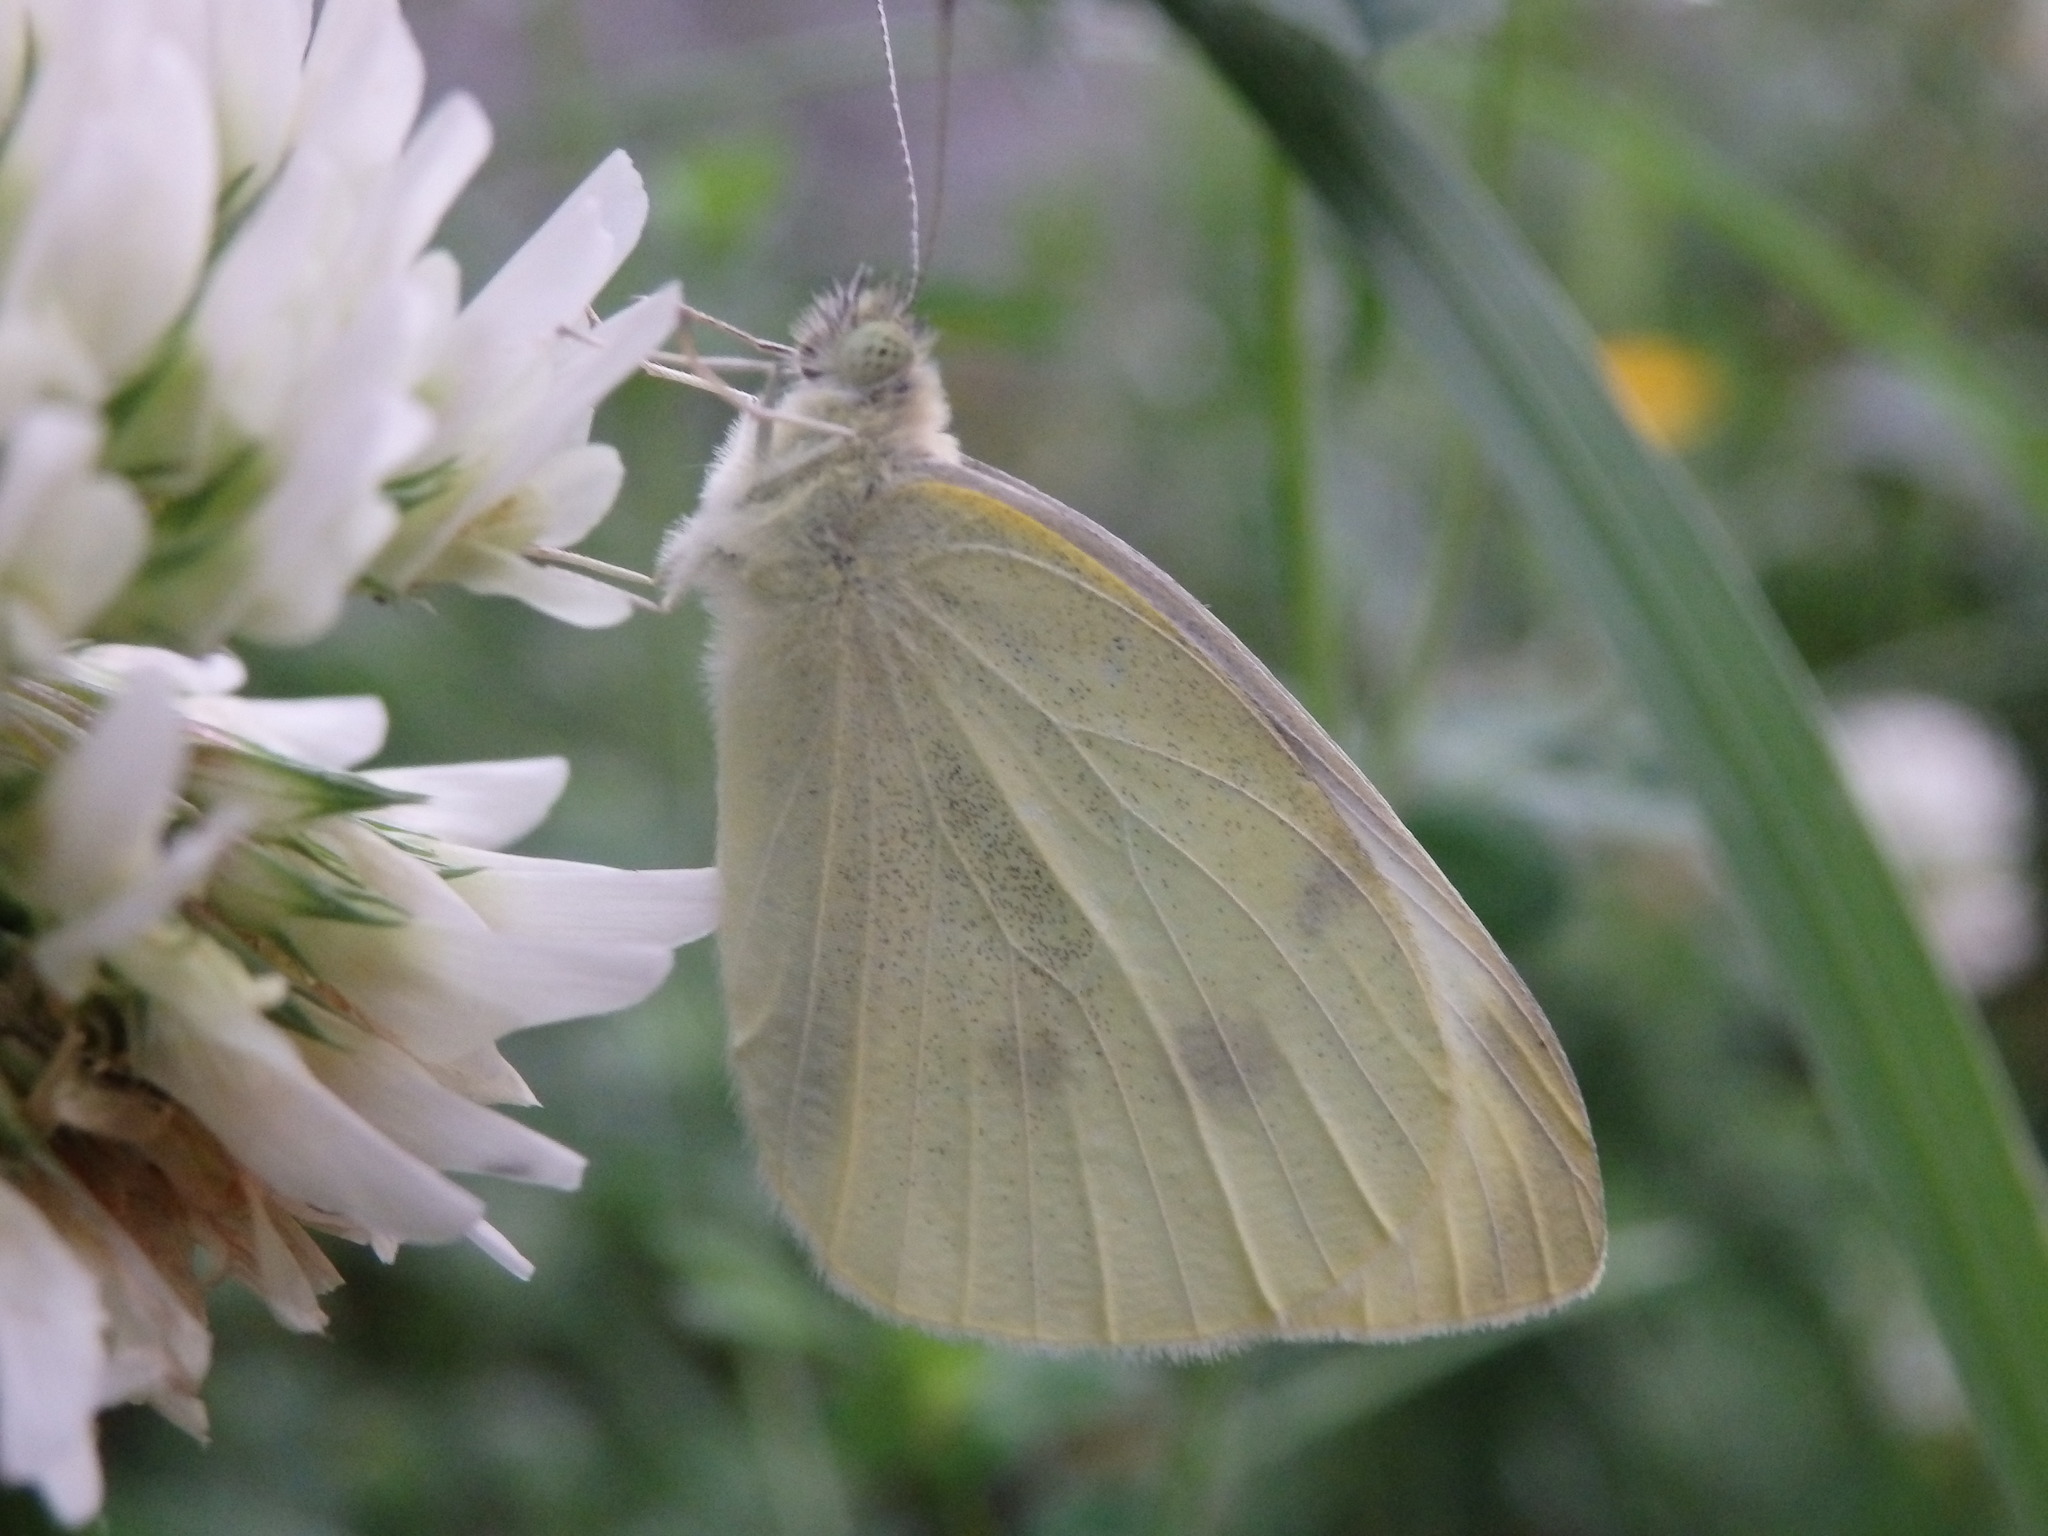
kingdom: Animalia
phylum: Arthropoda
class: Insecta
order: Lepidoptera
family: Pieridae
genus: Pieris
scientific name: Pieris rapae
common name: Small white
